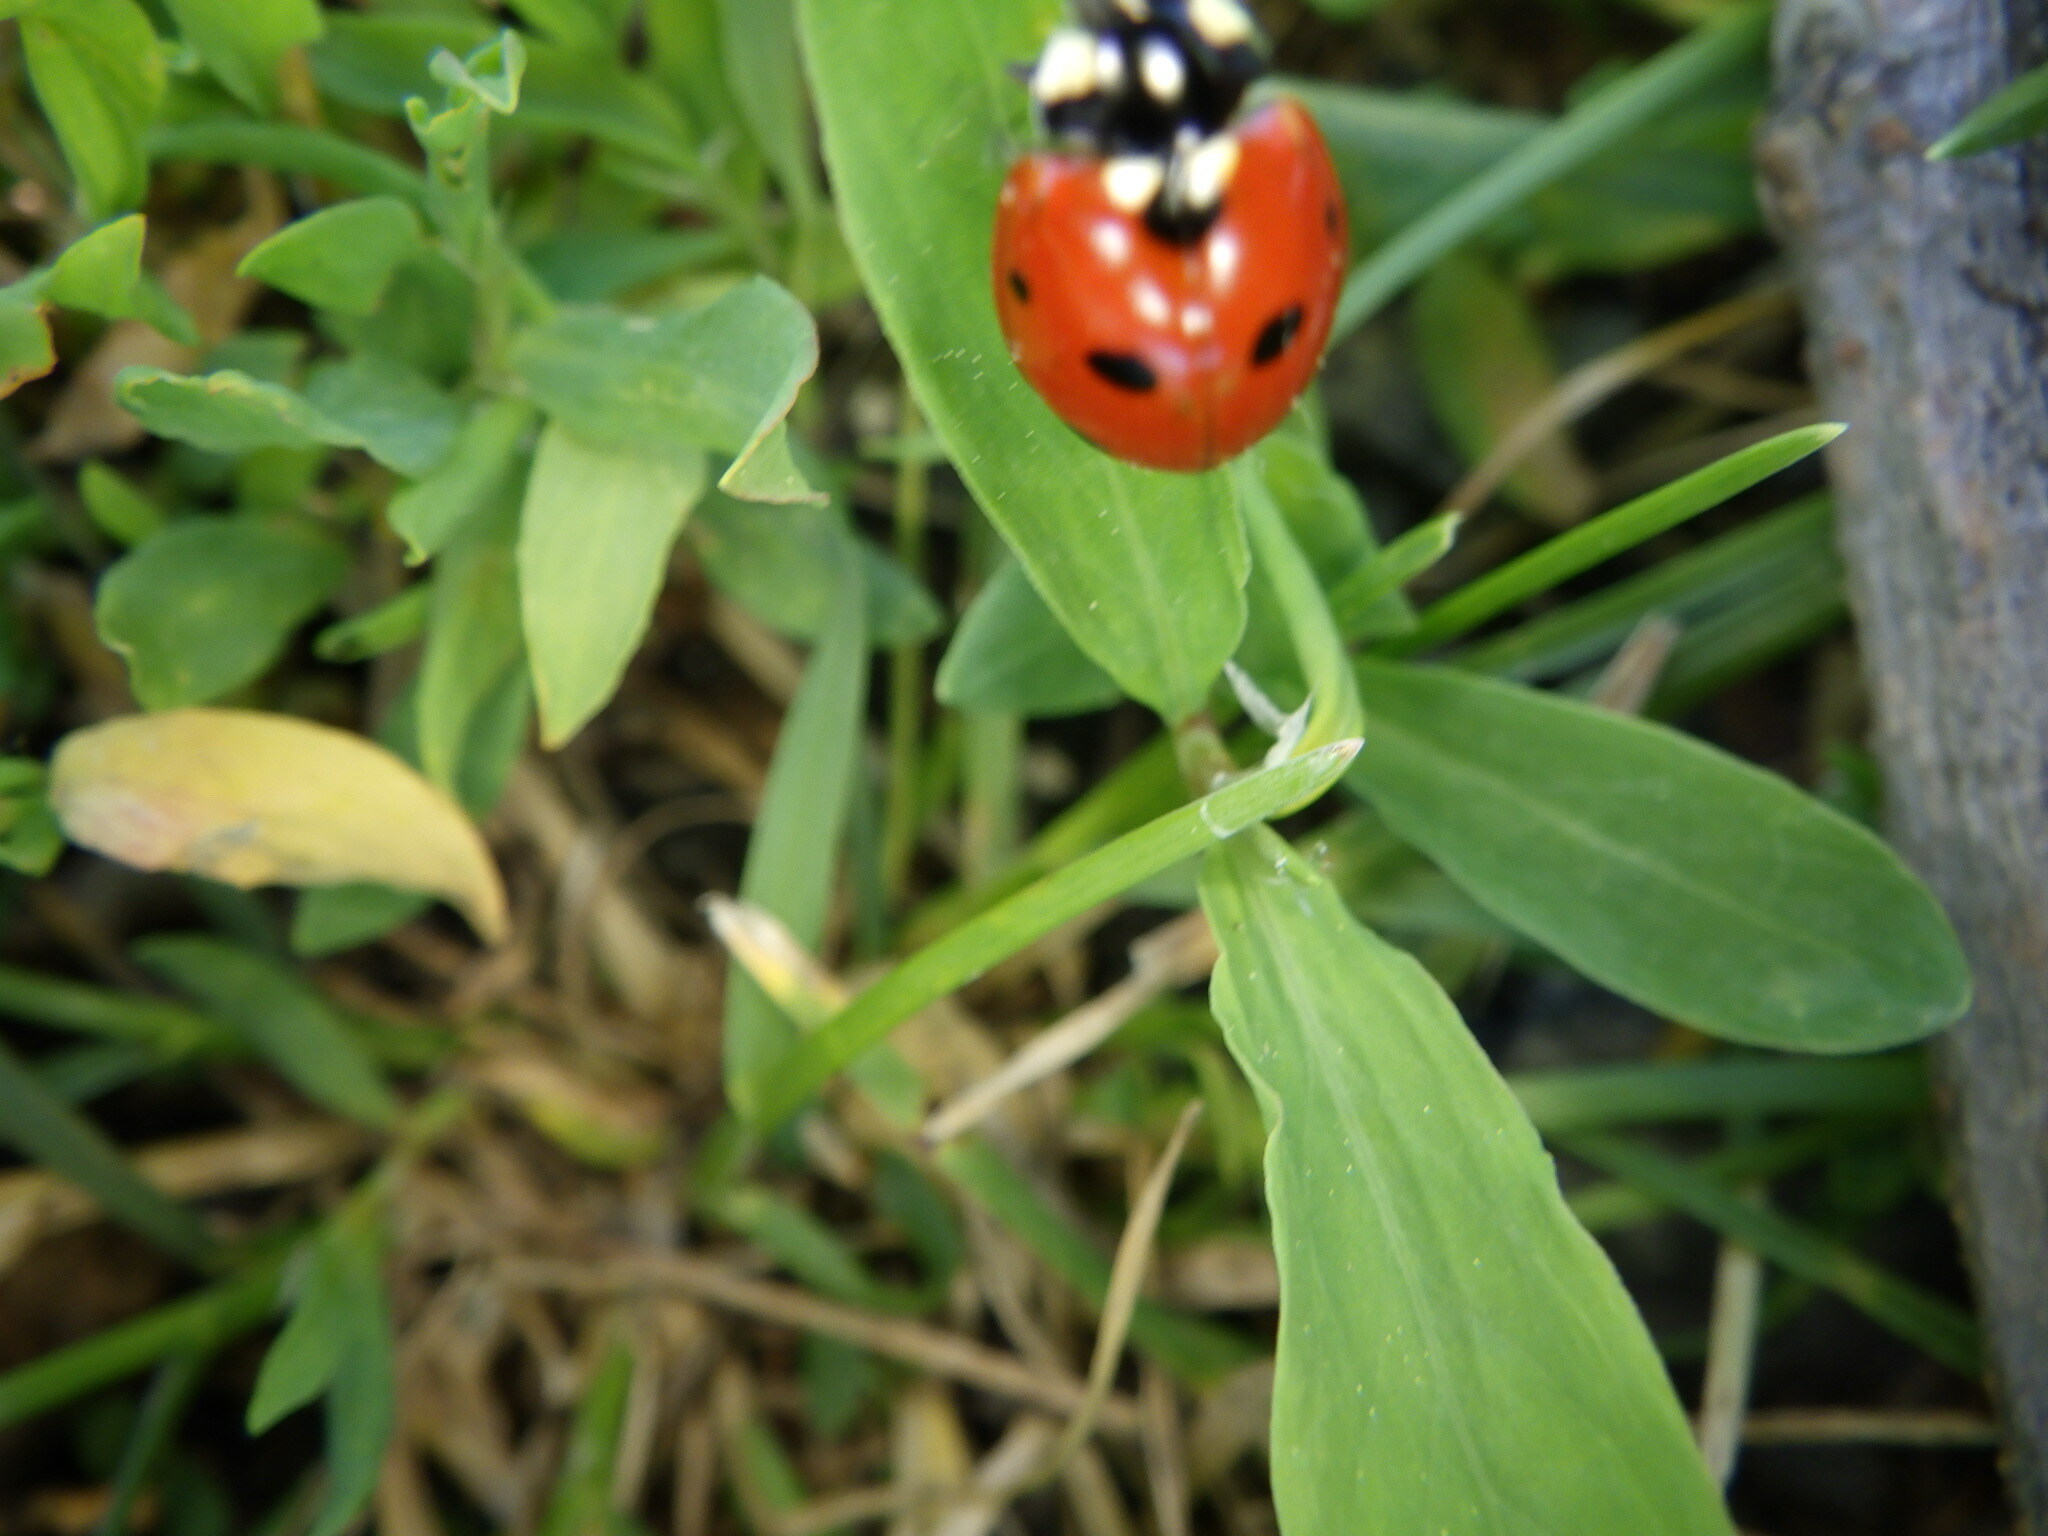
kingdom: Animalia
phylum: Arthropoda
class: Insecta
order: Coleoptera
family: Coccinellidae
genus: Coccinella
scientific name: Coccinella septempunctata
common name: Sevenspotted lady beetle
